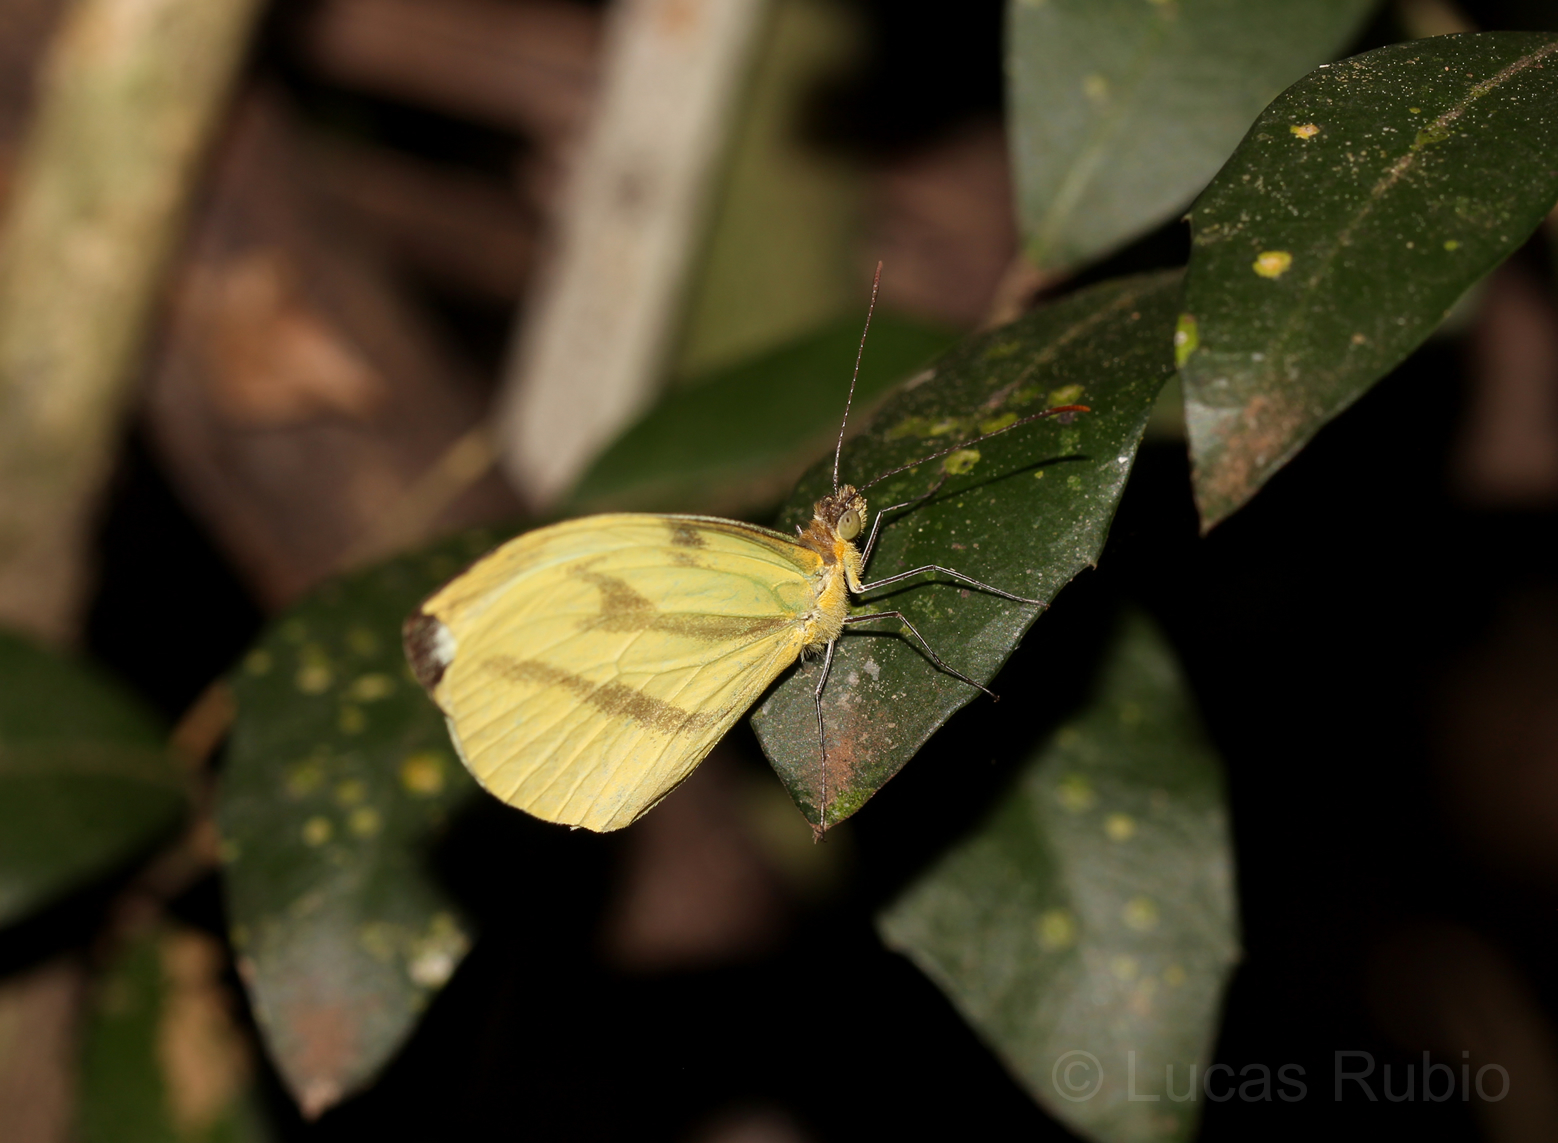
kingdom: Animalia
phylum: Arthropoda
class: Insecta
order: Lepidoptera
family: Pieridae
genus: Enantia
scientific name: Enantia lina
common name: White mimic-white
